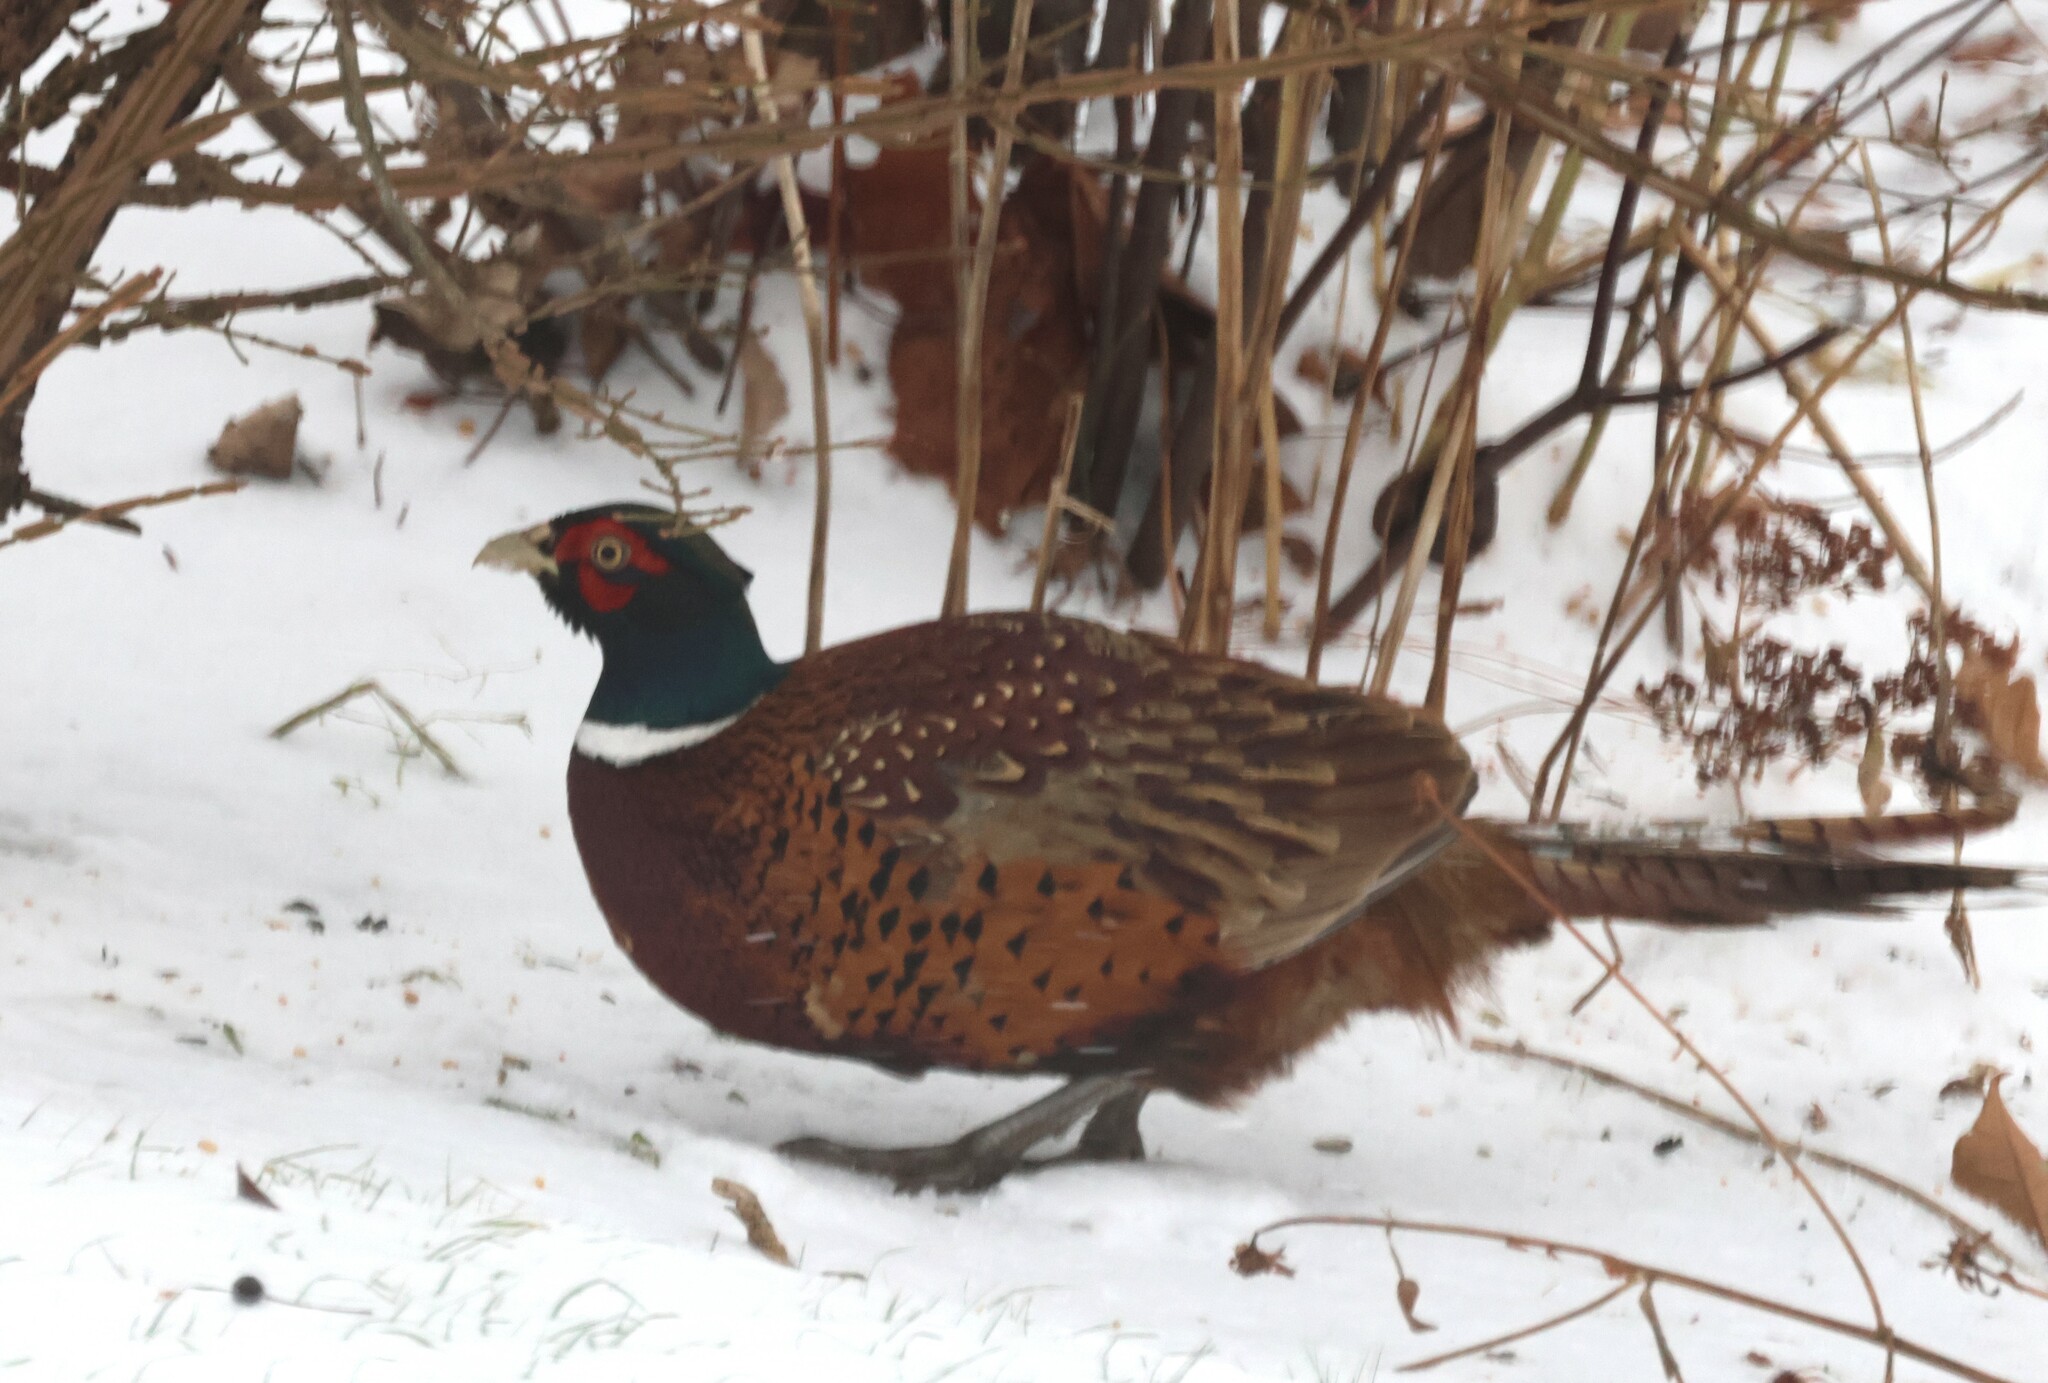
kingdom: Animalia
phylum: Chordata
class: Aves
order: Galliformes
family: Phasianidae
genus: Phasianus
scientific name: Phasianus colchicus
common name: Common pheasant
